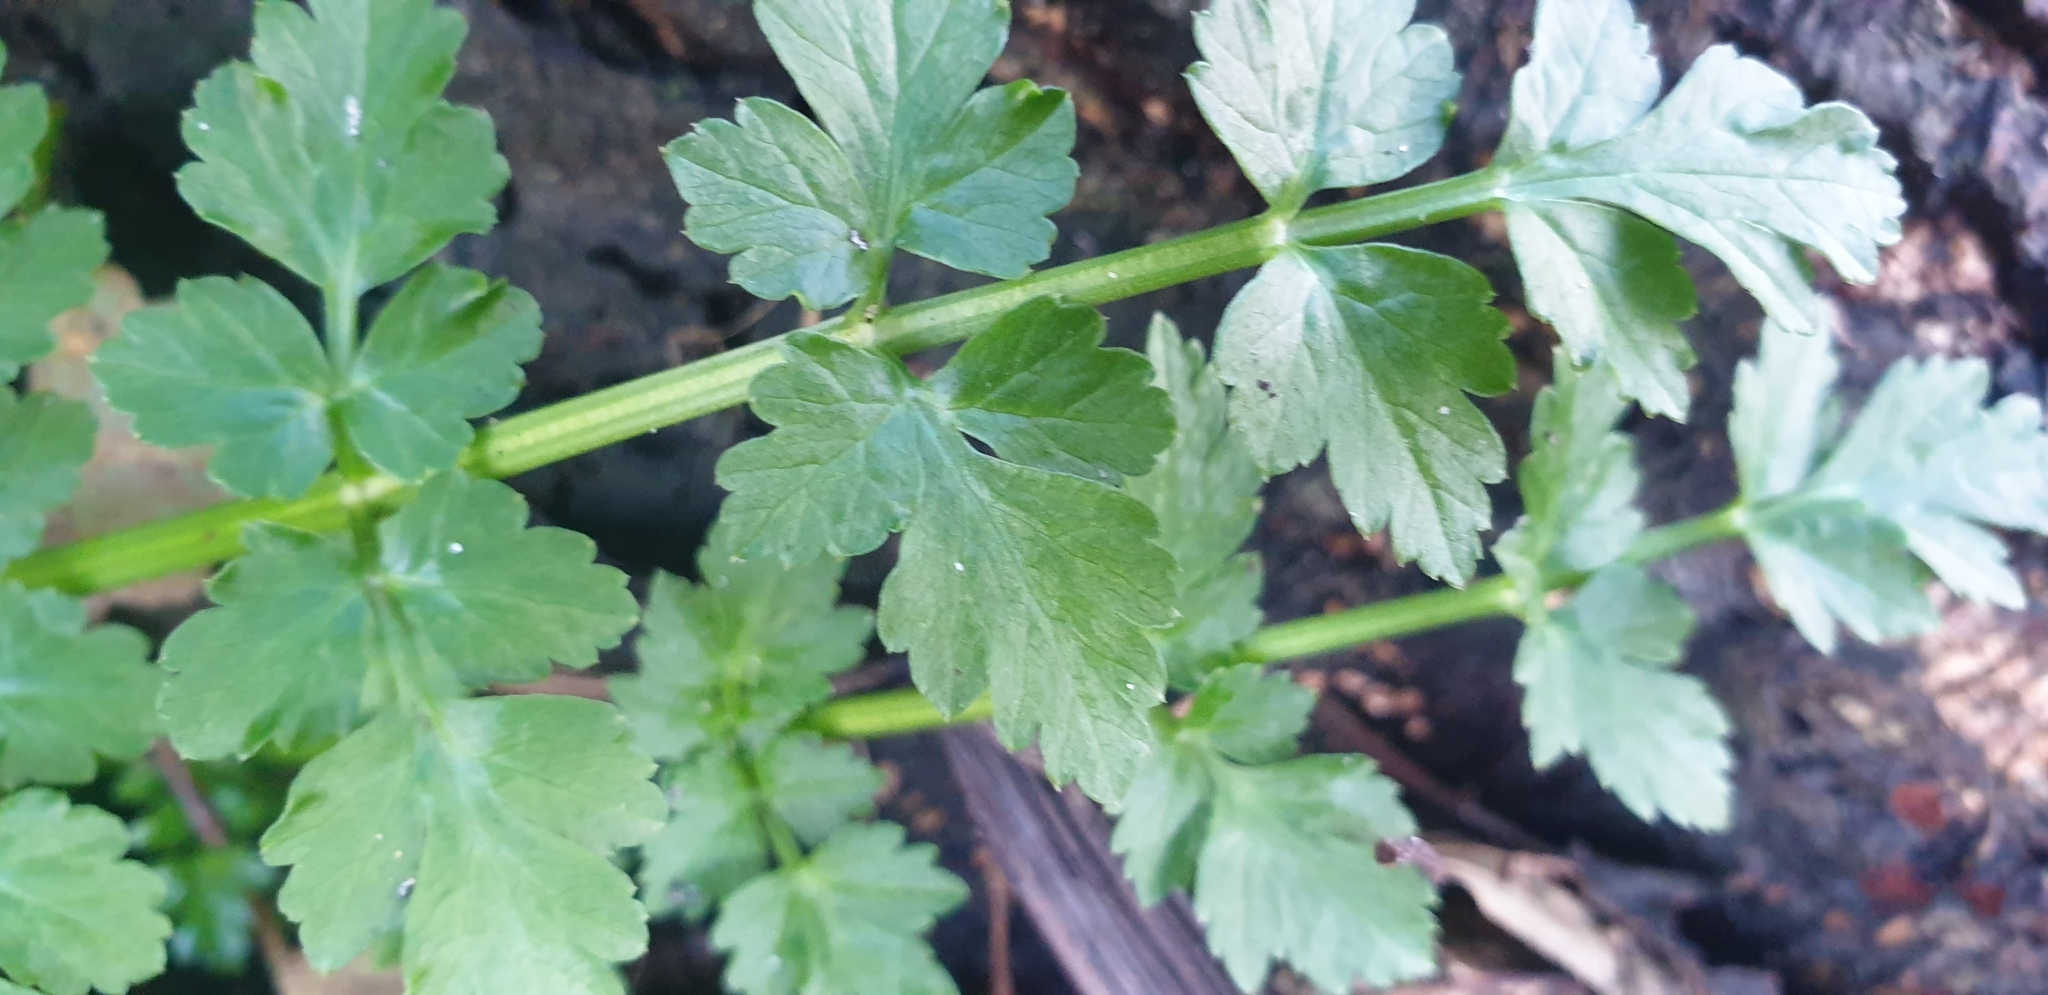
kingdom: Plantae
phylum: Tracheophyta
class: Magnoliopsida
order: Apiales
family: Apiaceae
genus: Oenanthe
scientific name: Oenanthe crocata
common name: Hemlock water-dropwort
